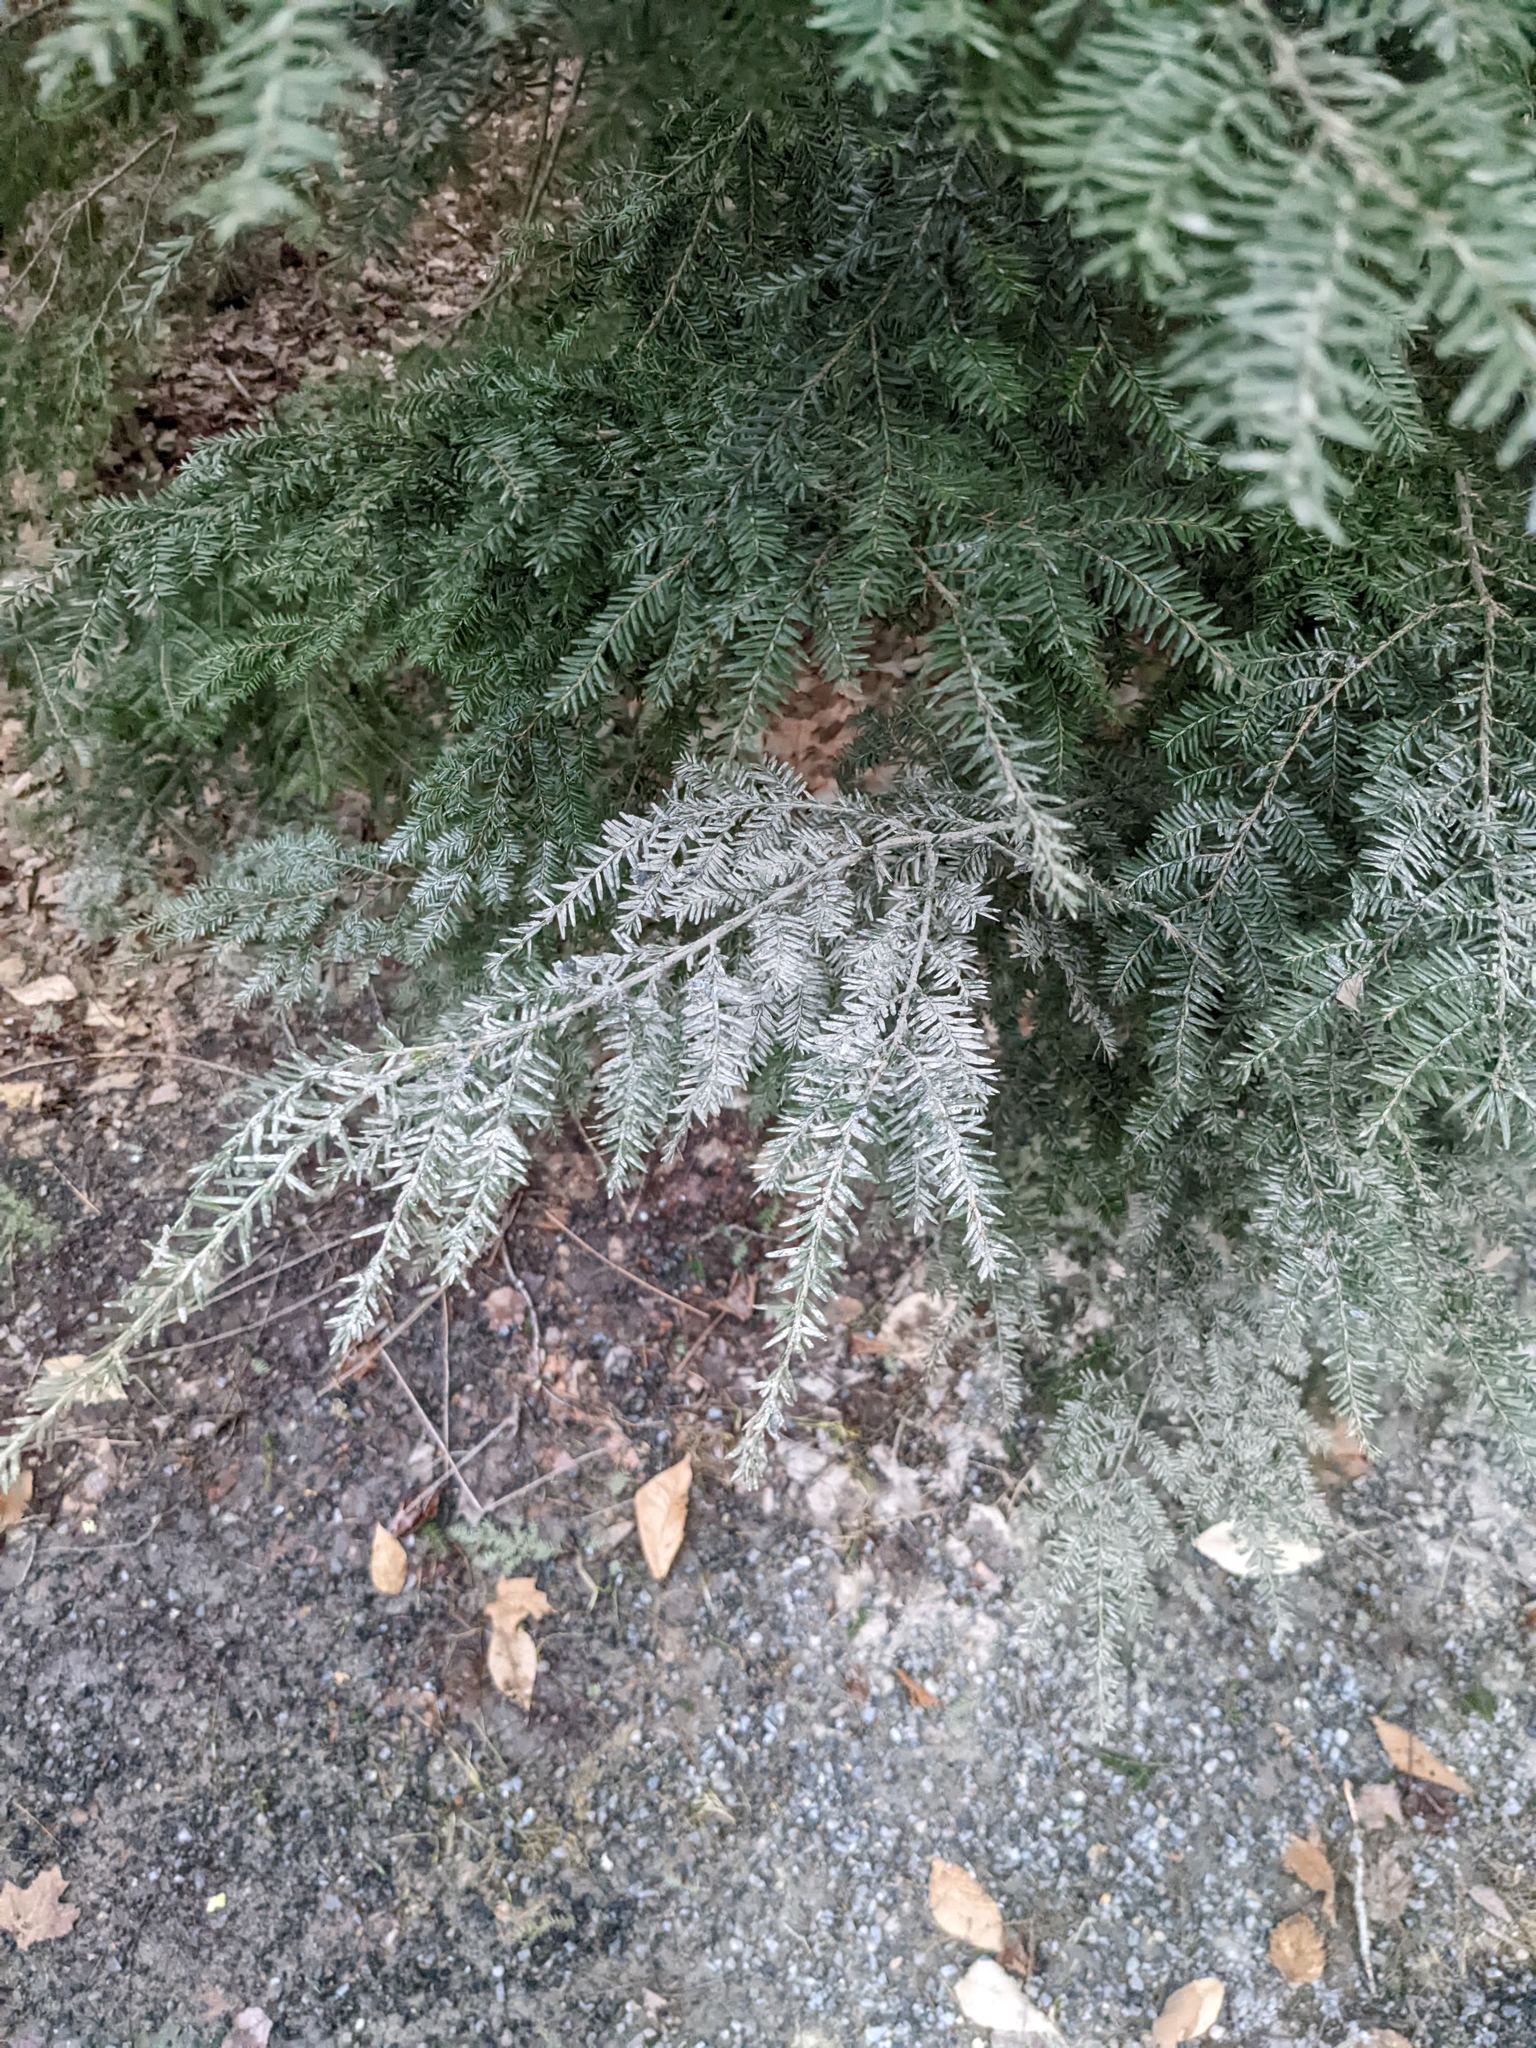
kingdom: Plantae
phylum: Tracheophyta
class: Pinopsida
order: Pinales
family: Pinaceae
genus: Tsuga
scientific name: Tsuga canadensis
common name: Eastern hemlock
